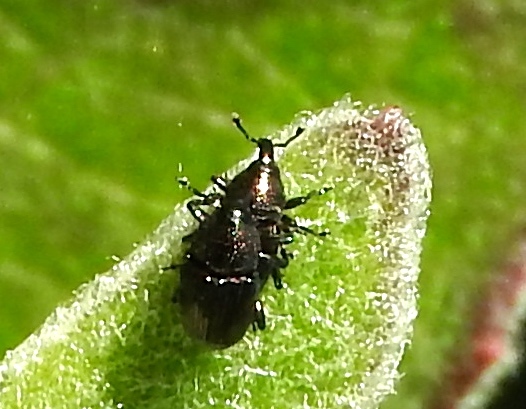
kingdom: Animalia
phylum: Arthropoda
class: Insecta
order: Coleoptera
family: Curculionidae
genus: Baridinae
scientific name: Baridinae
